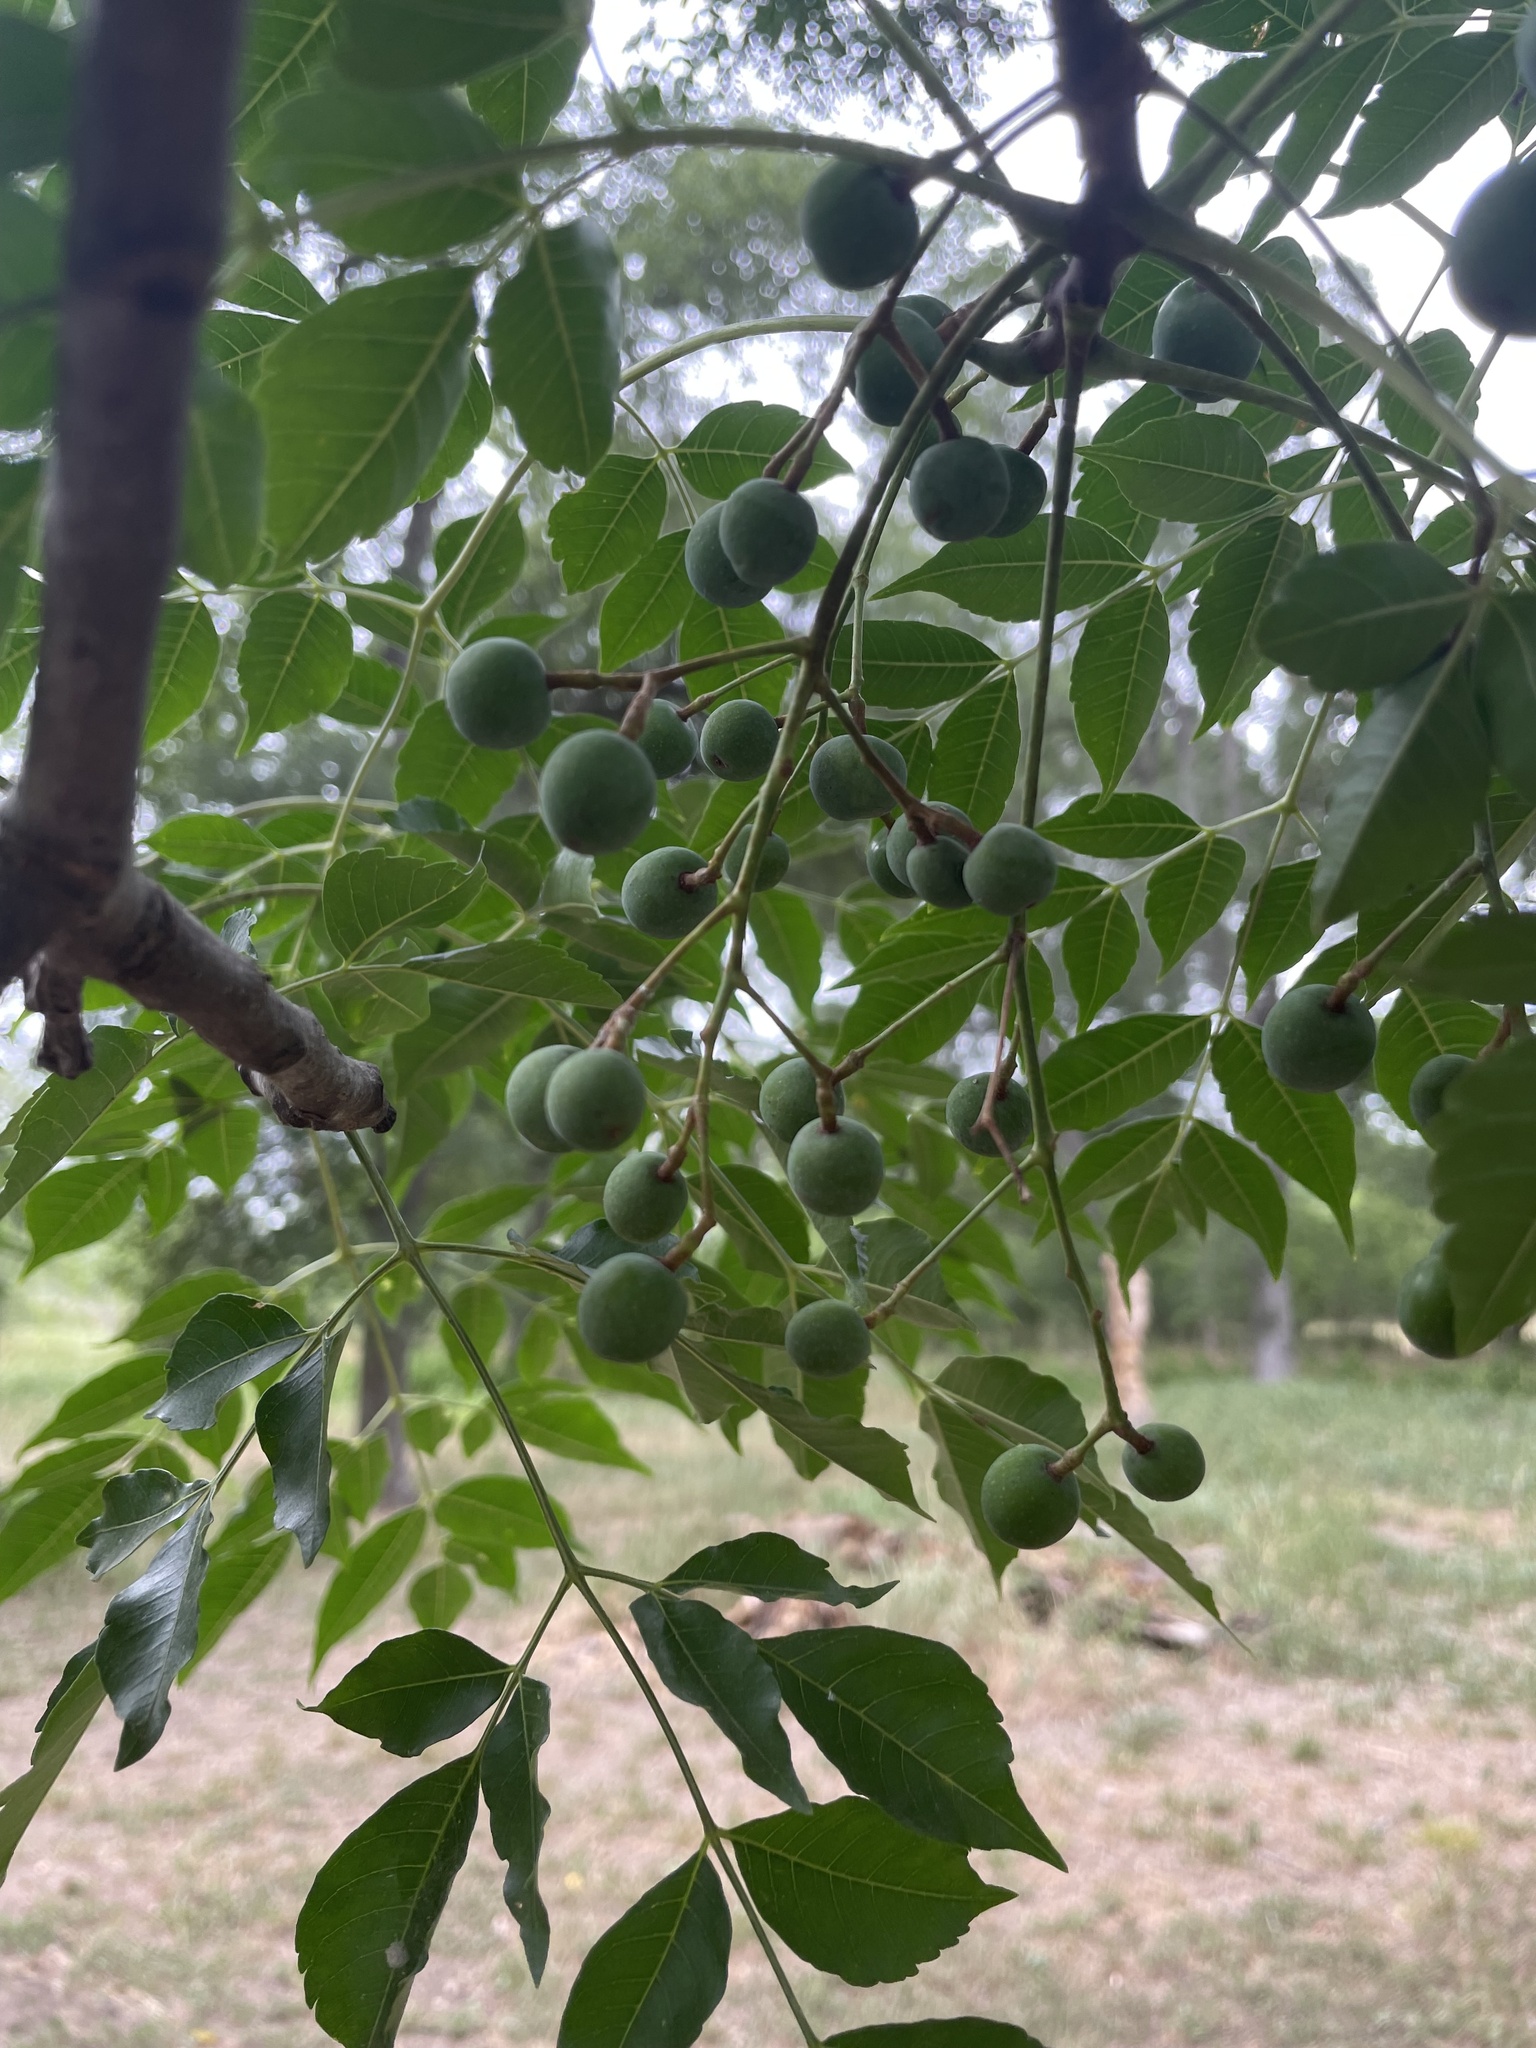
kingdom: Plantae
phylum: Tracheophyta
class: Magnoliopsida
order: Sapindales
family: Meliaceae
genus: Melia
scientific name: Melia azedarach
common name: Chinaberrytree
